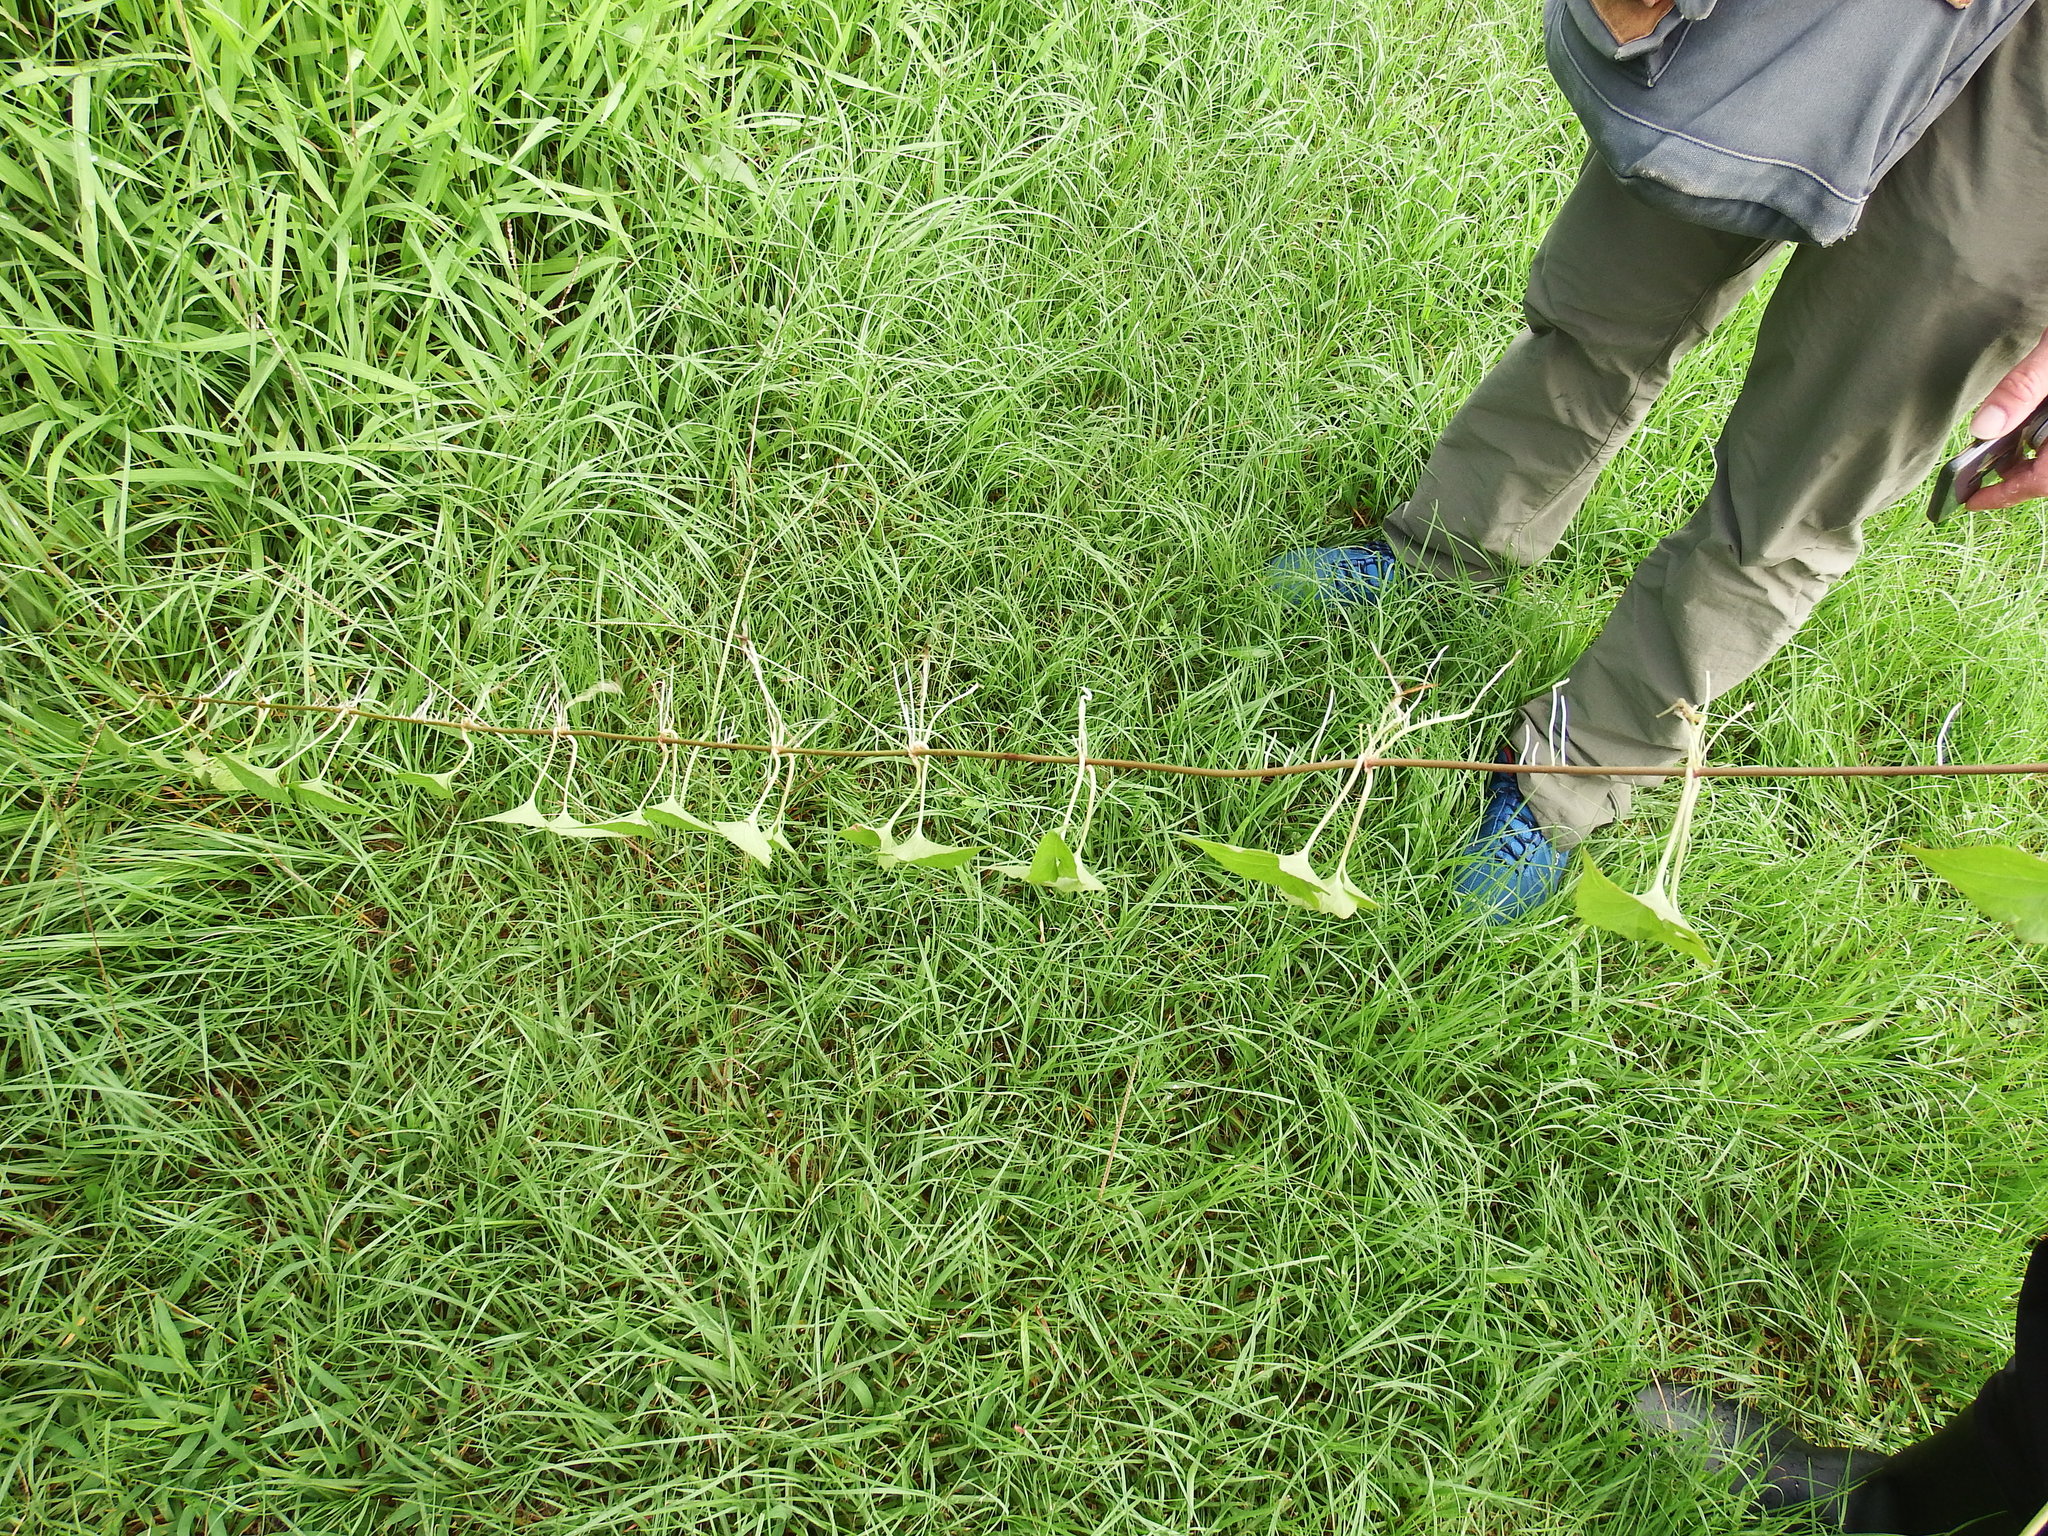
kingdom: Plantae
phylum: Tracheophyta
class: Magnoliopsida
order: Asterales
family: Asteraceae
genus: Mikania
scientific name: Mikania micrantha
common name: Mile-a-minute
